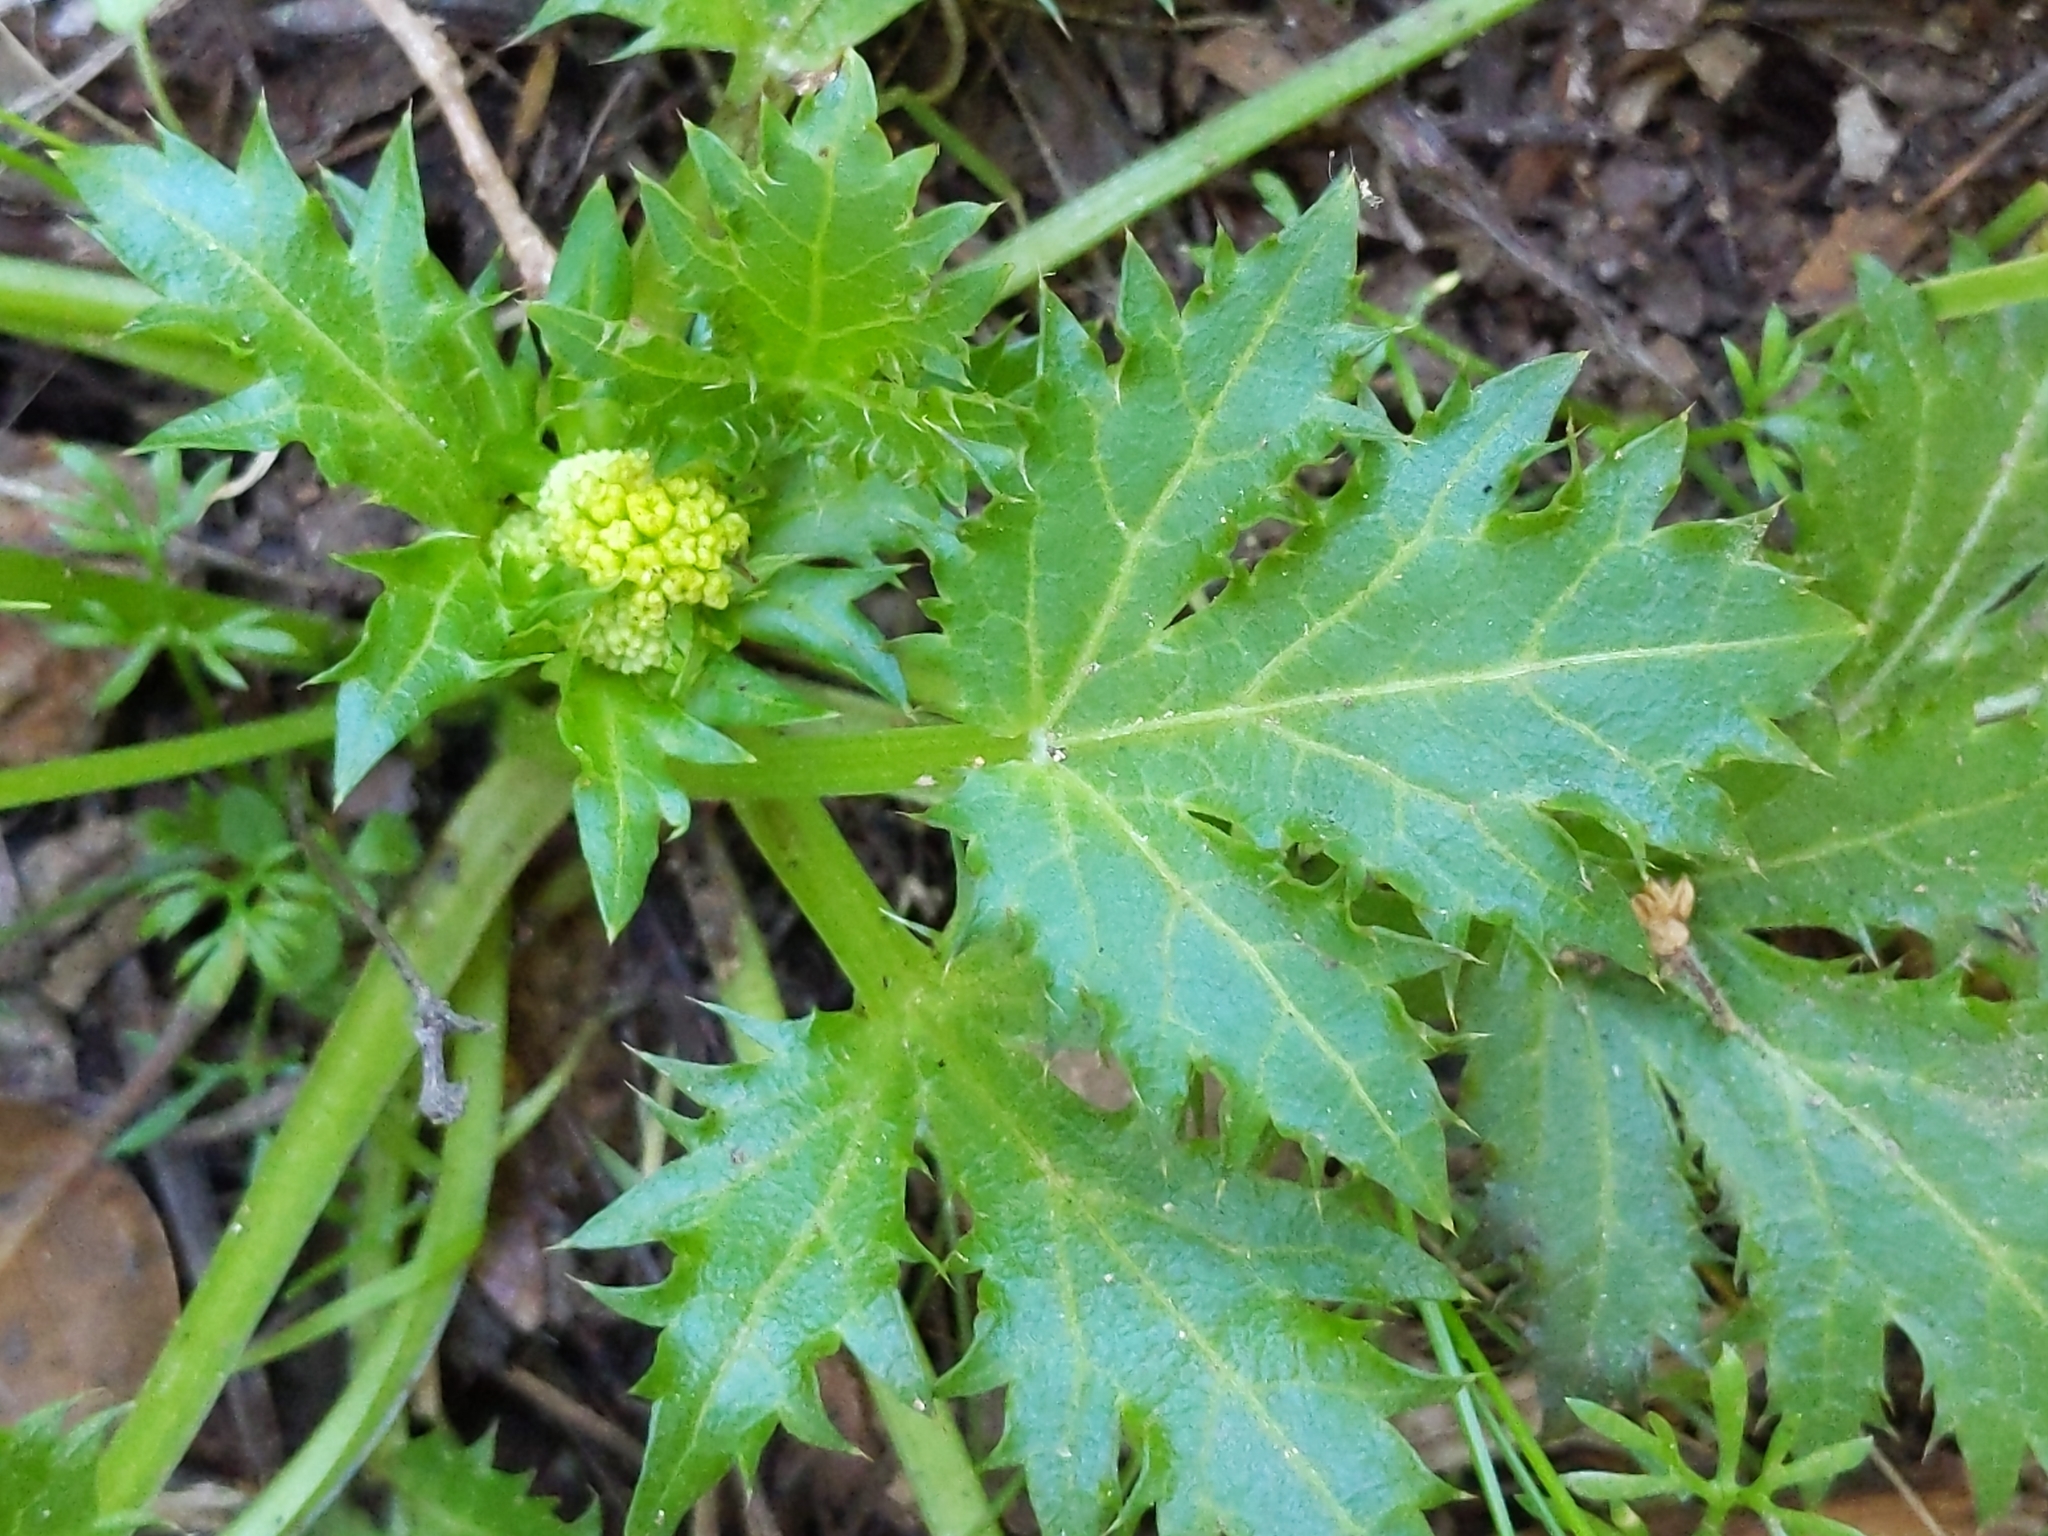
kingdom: Plantae
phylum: Tracheophyta
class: Magnoliopsida
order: Apiales
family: Apiaceae
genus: Sanicula
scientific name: Sanicula laciniata
